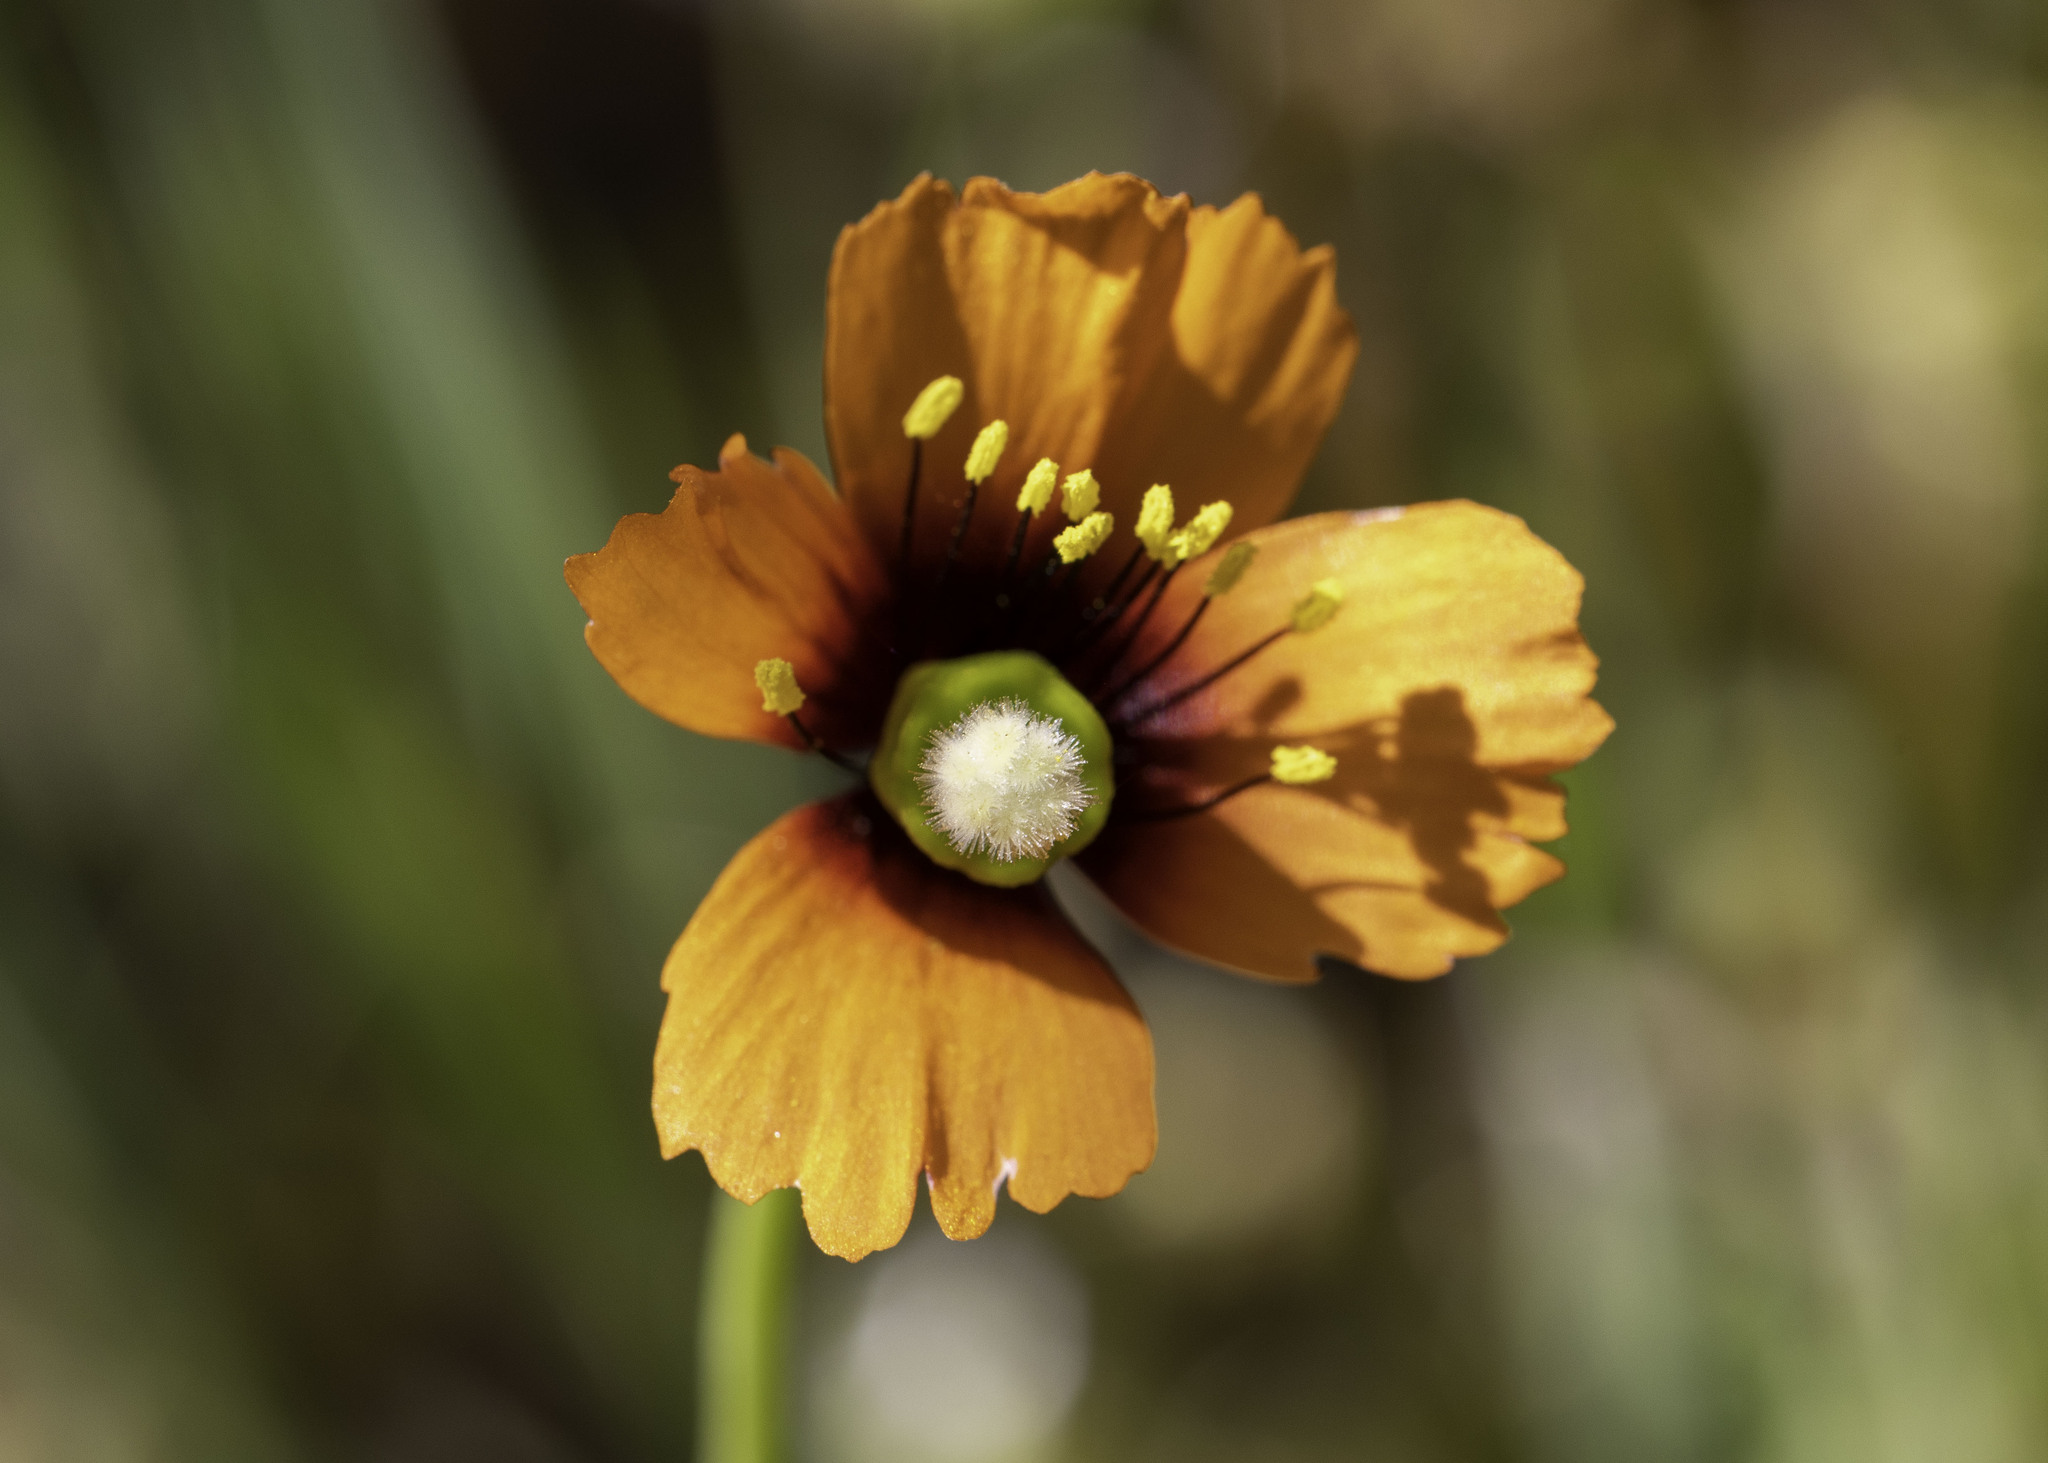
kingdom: Plantae
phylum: Tracheophyta
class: Magnoliopsida
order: Ranunculales
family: Papaveraceae
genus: Stylomecon
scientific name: Stylomecon heterophylla
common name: Flaming-poppy
